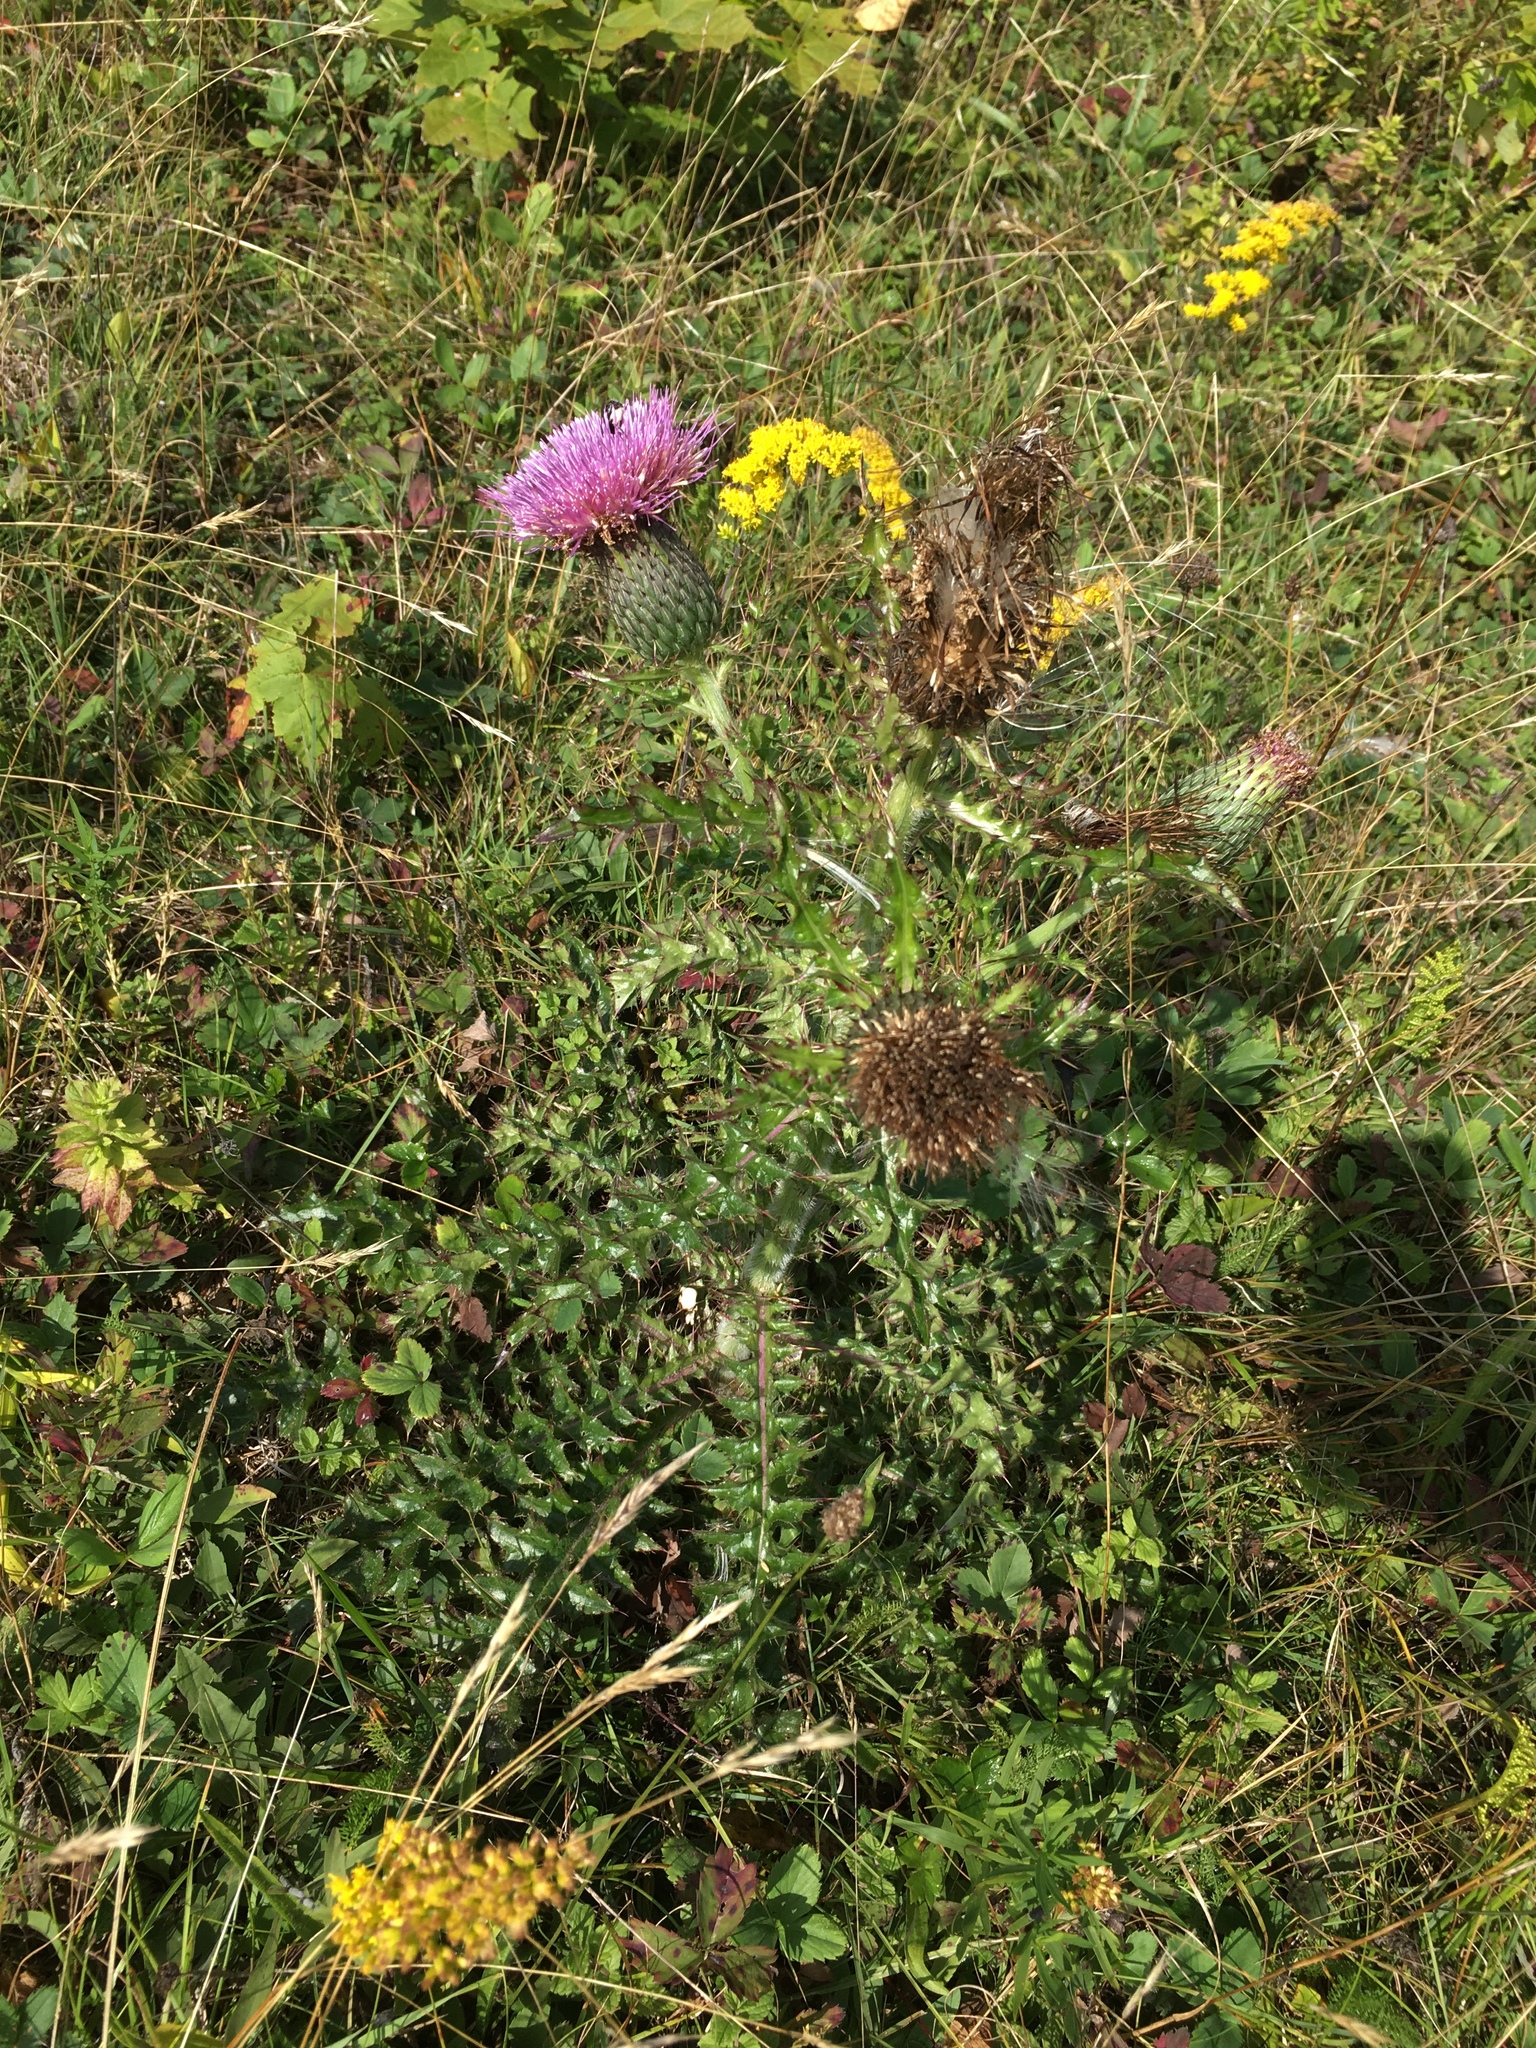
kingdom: Plantae
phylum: Tracheophyta
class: Magnoliopsida
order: Asterales
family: Asteraceae
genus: Cirsium
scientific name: Cirsium pumilum
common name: Pasture thistle
